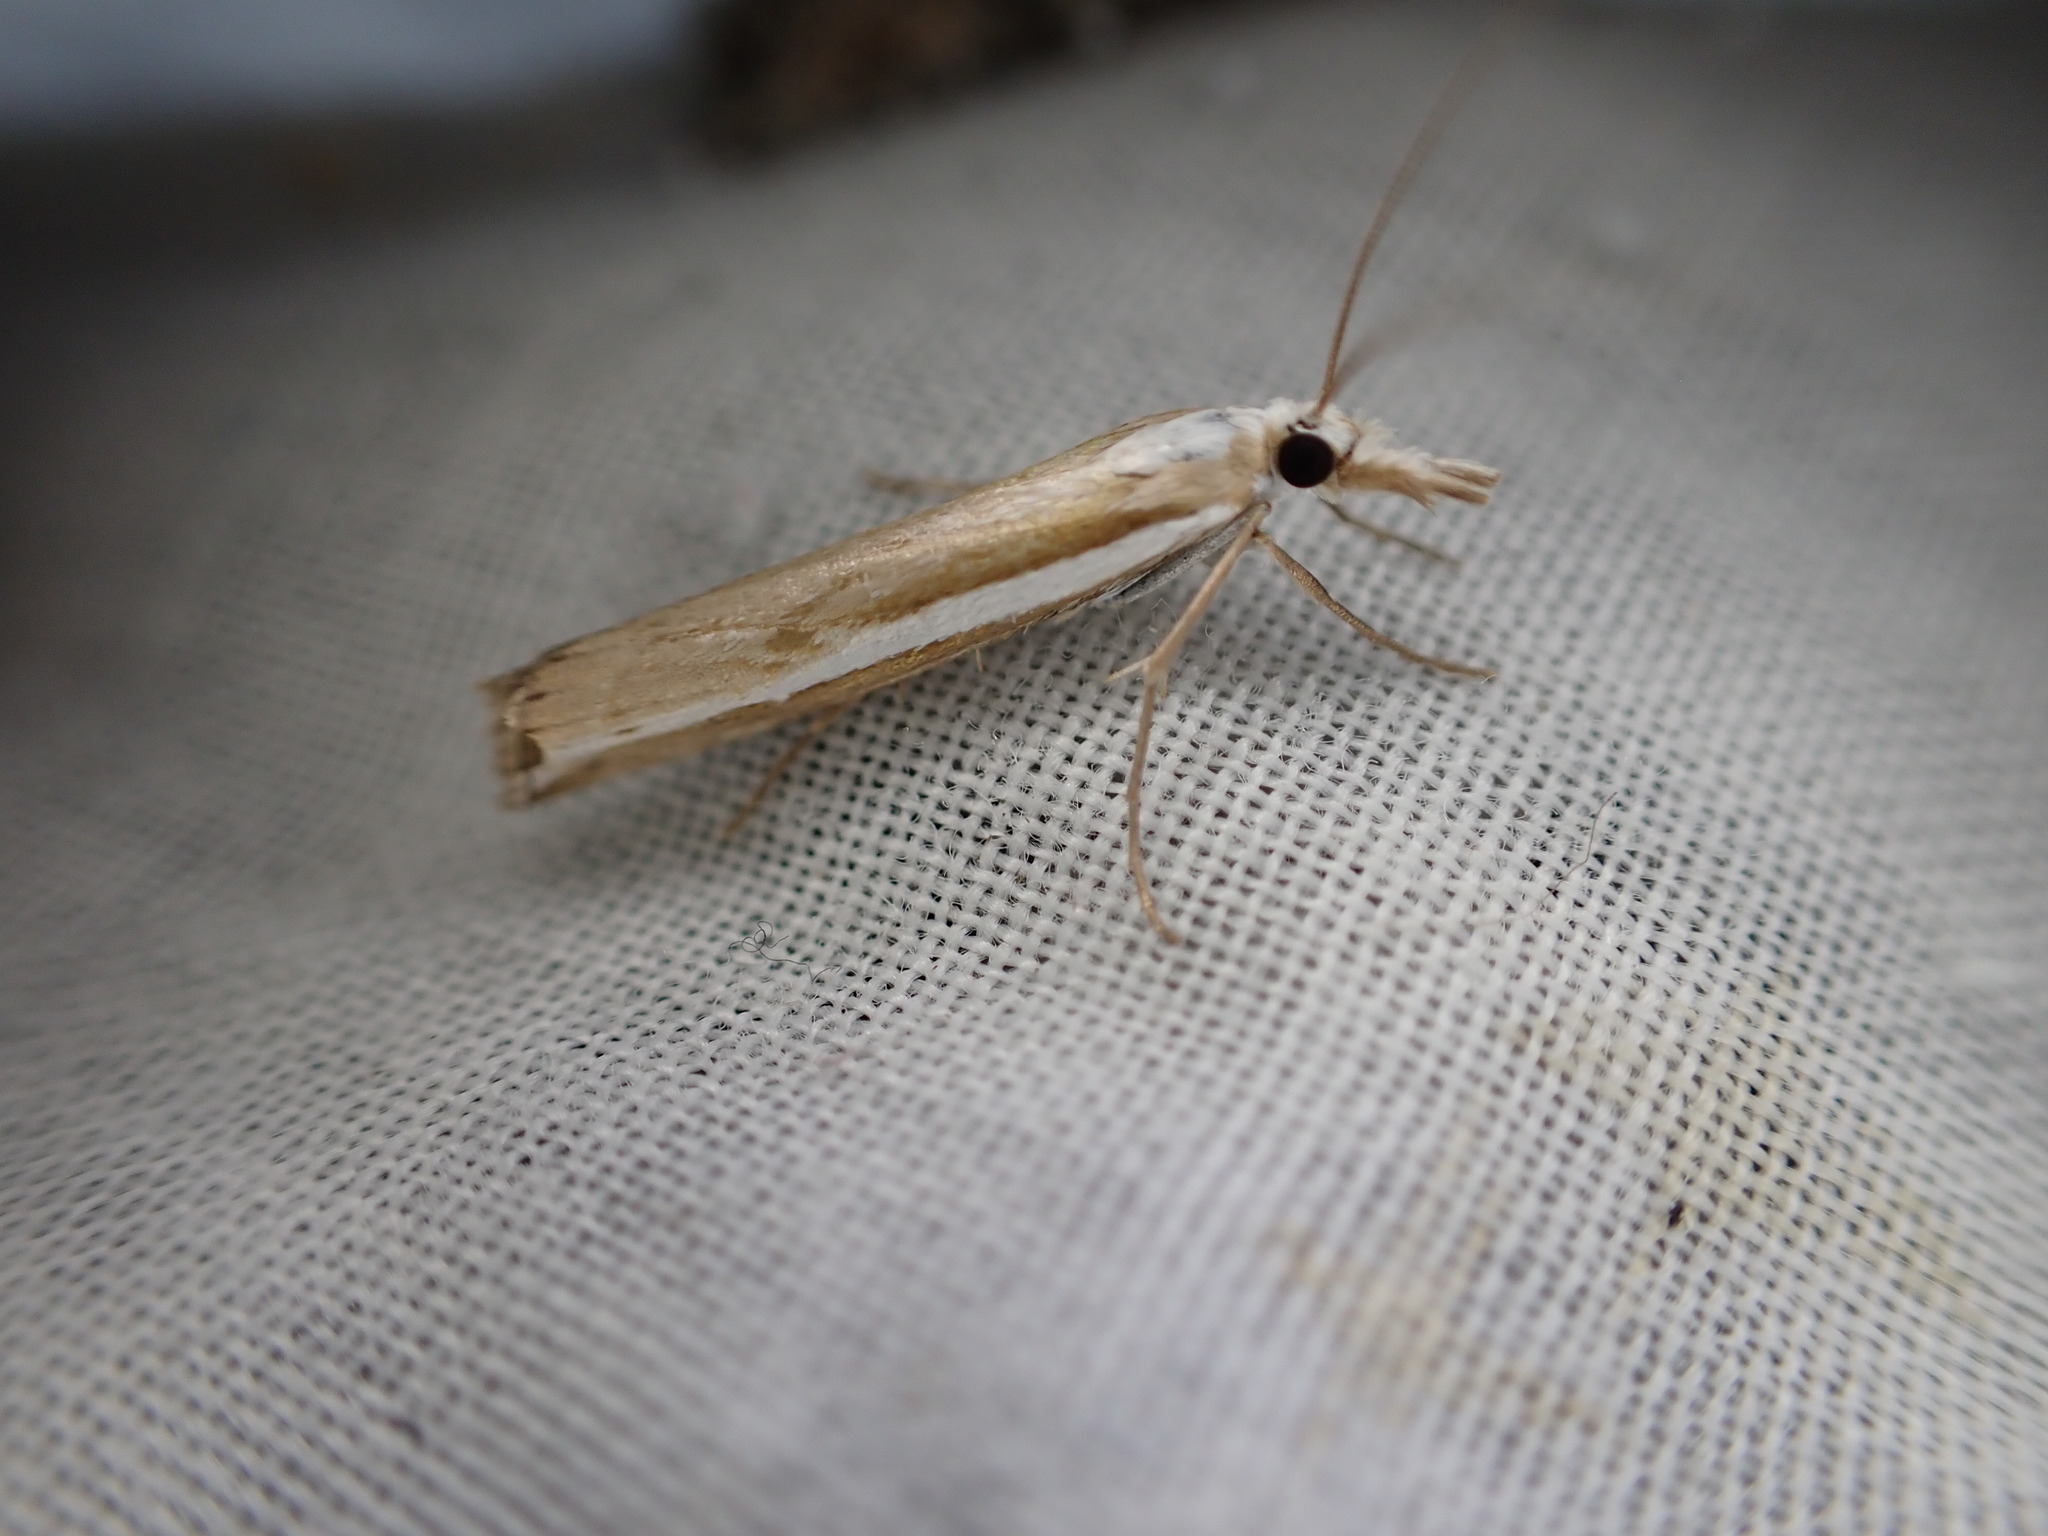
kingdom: Animalia
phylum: Arthropoda
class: Insecta
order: Lepidoptera
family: Crambidae
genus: Orocrambus
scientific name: Orocrambus vittellus
